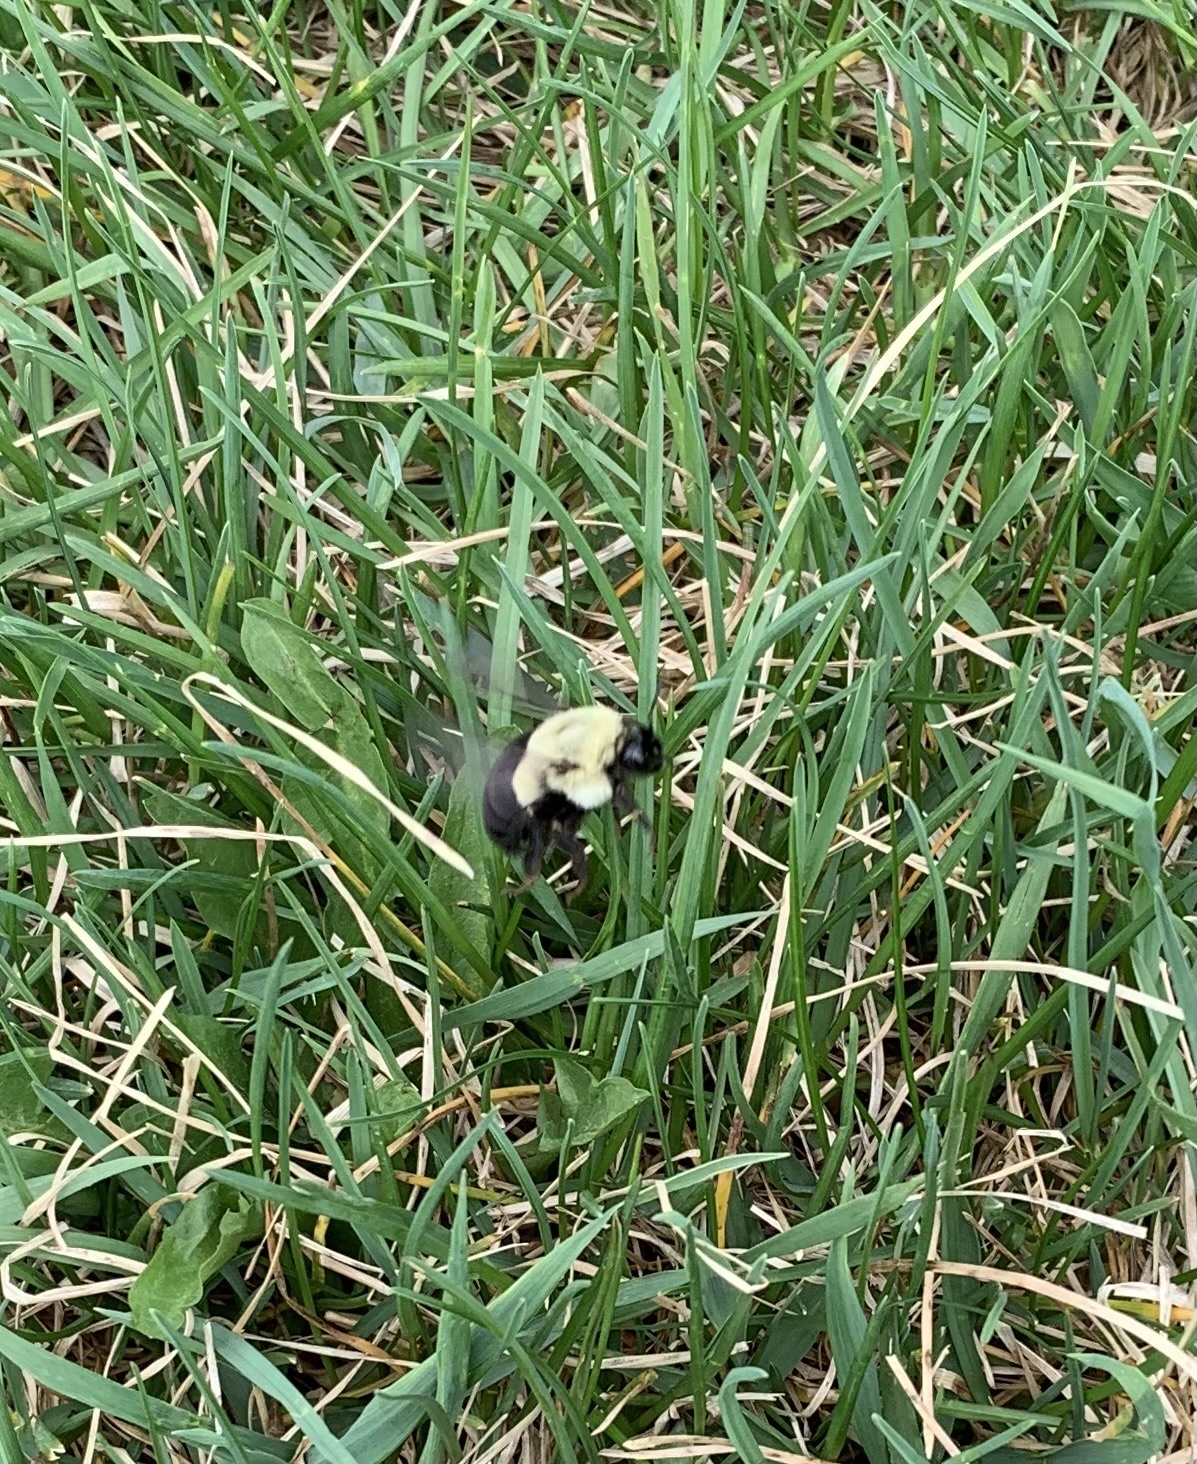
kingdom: Animalia
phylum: Arthropoda
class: Insecta
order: Hymenoptera
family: Apidae
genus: Bombus
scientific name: Bombus impatiens
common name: Common eastern bumble bee
